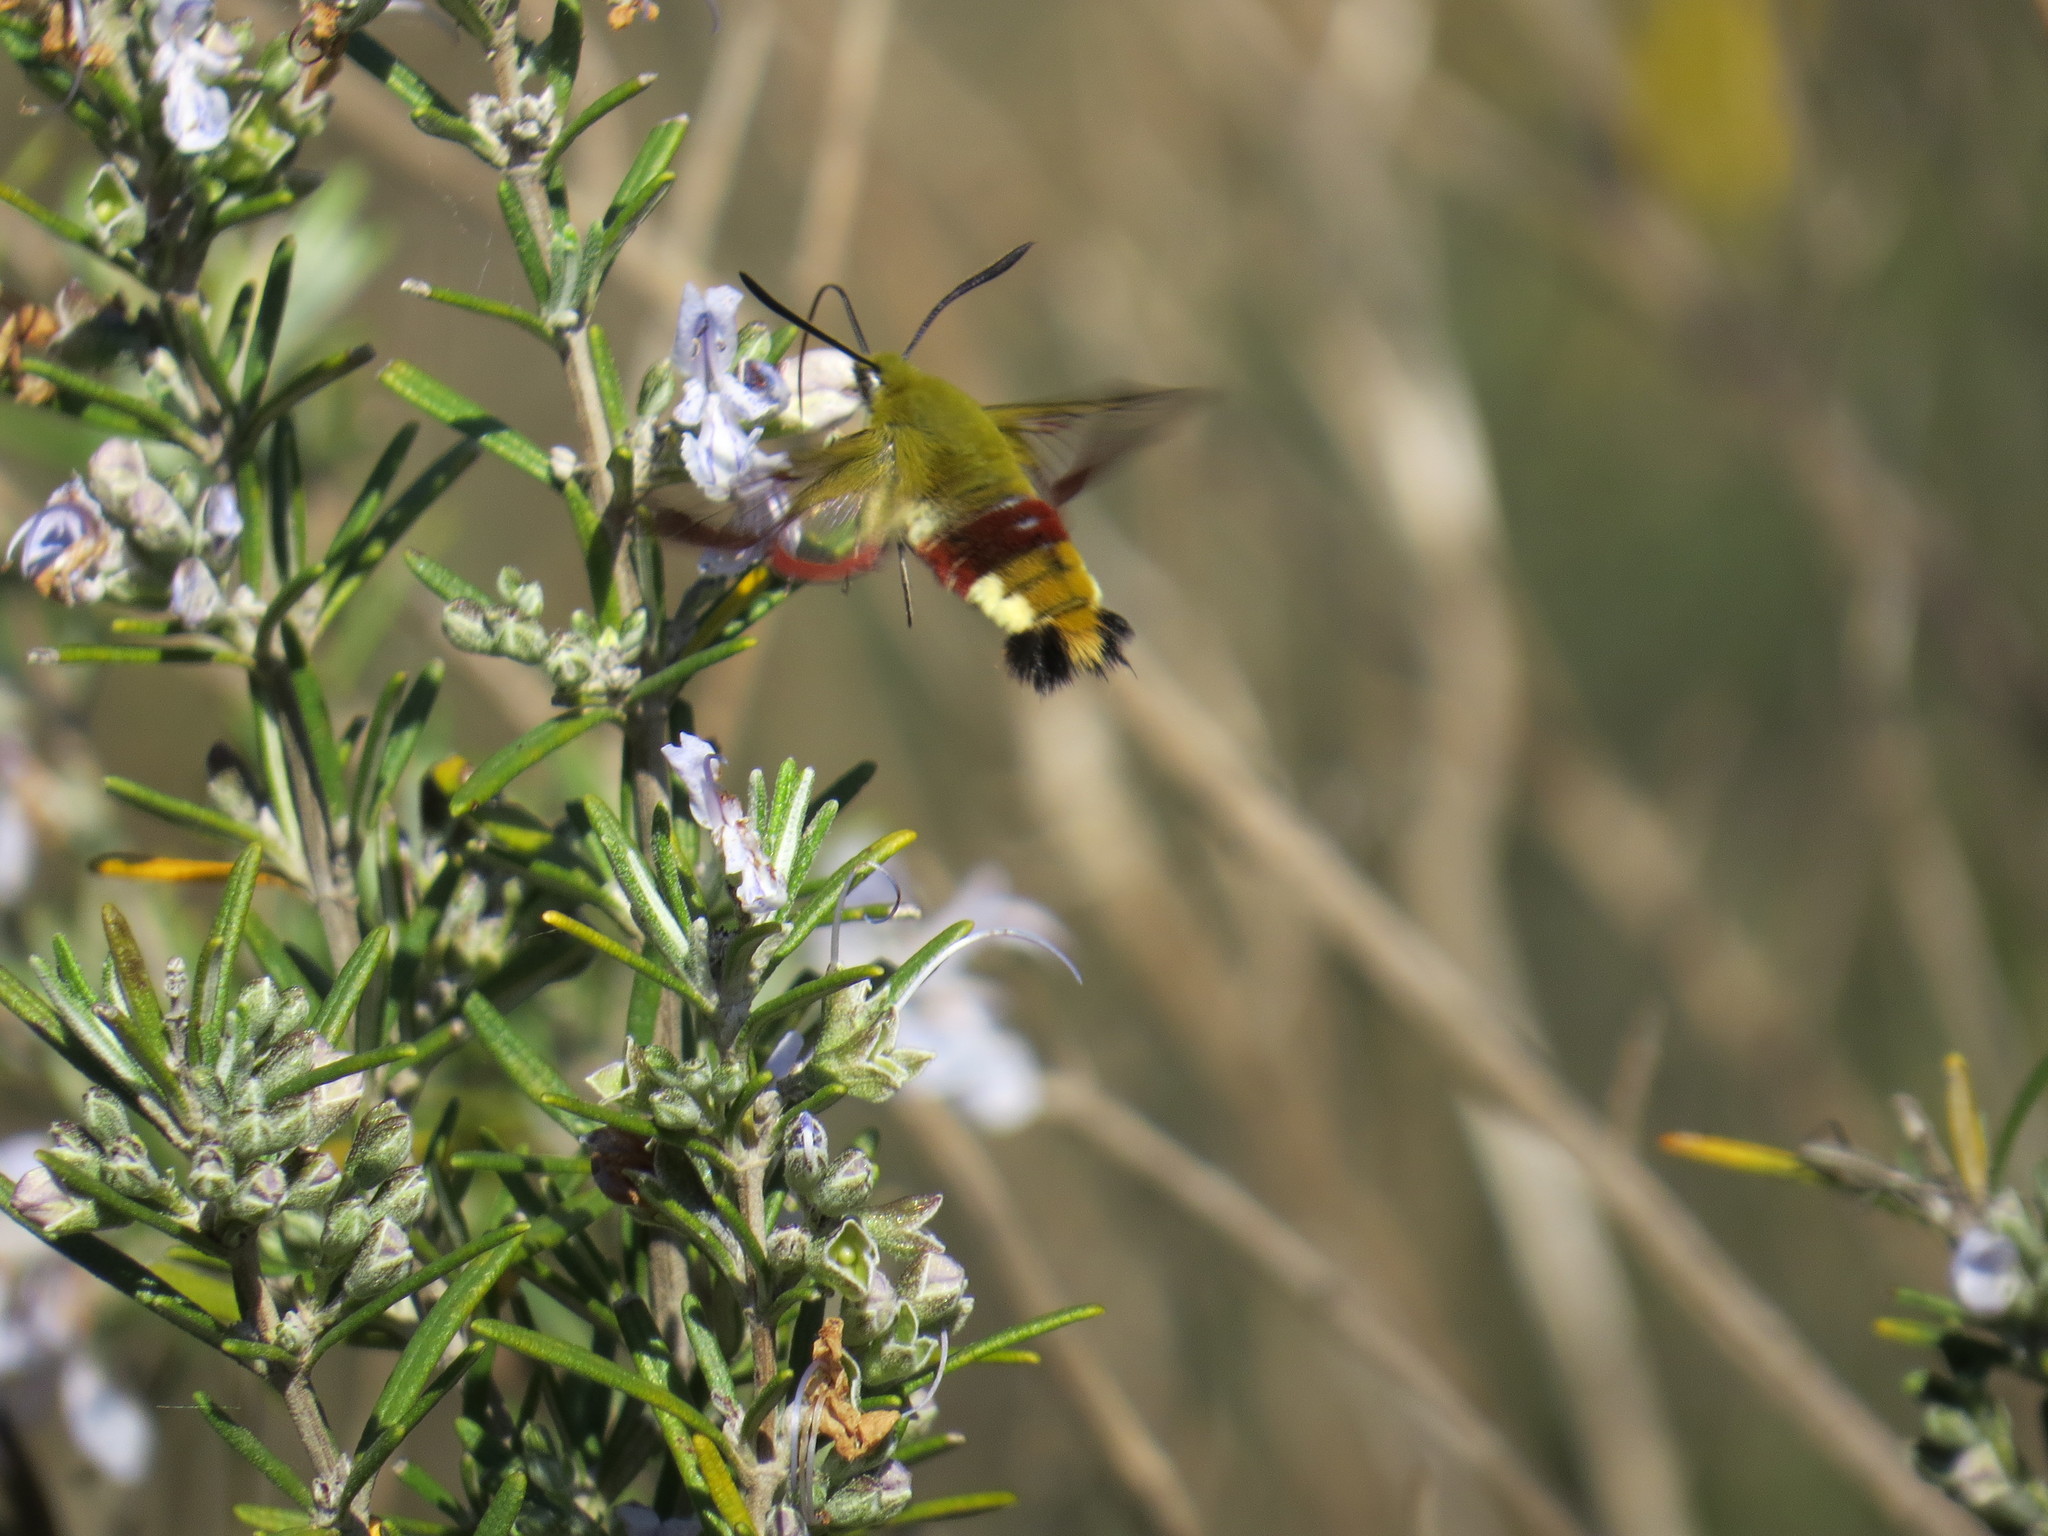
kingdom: Animalia
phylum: Arthropoda
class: Insecta
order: Lepidoptera
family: Sphingidae
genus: Hemaris
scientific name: Hemaris fuciformis
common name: Broad-bordered bee hawk-moth
